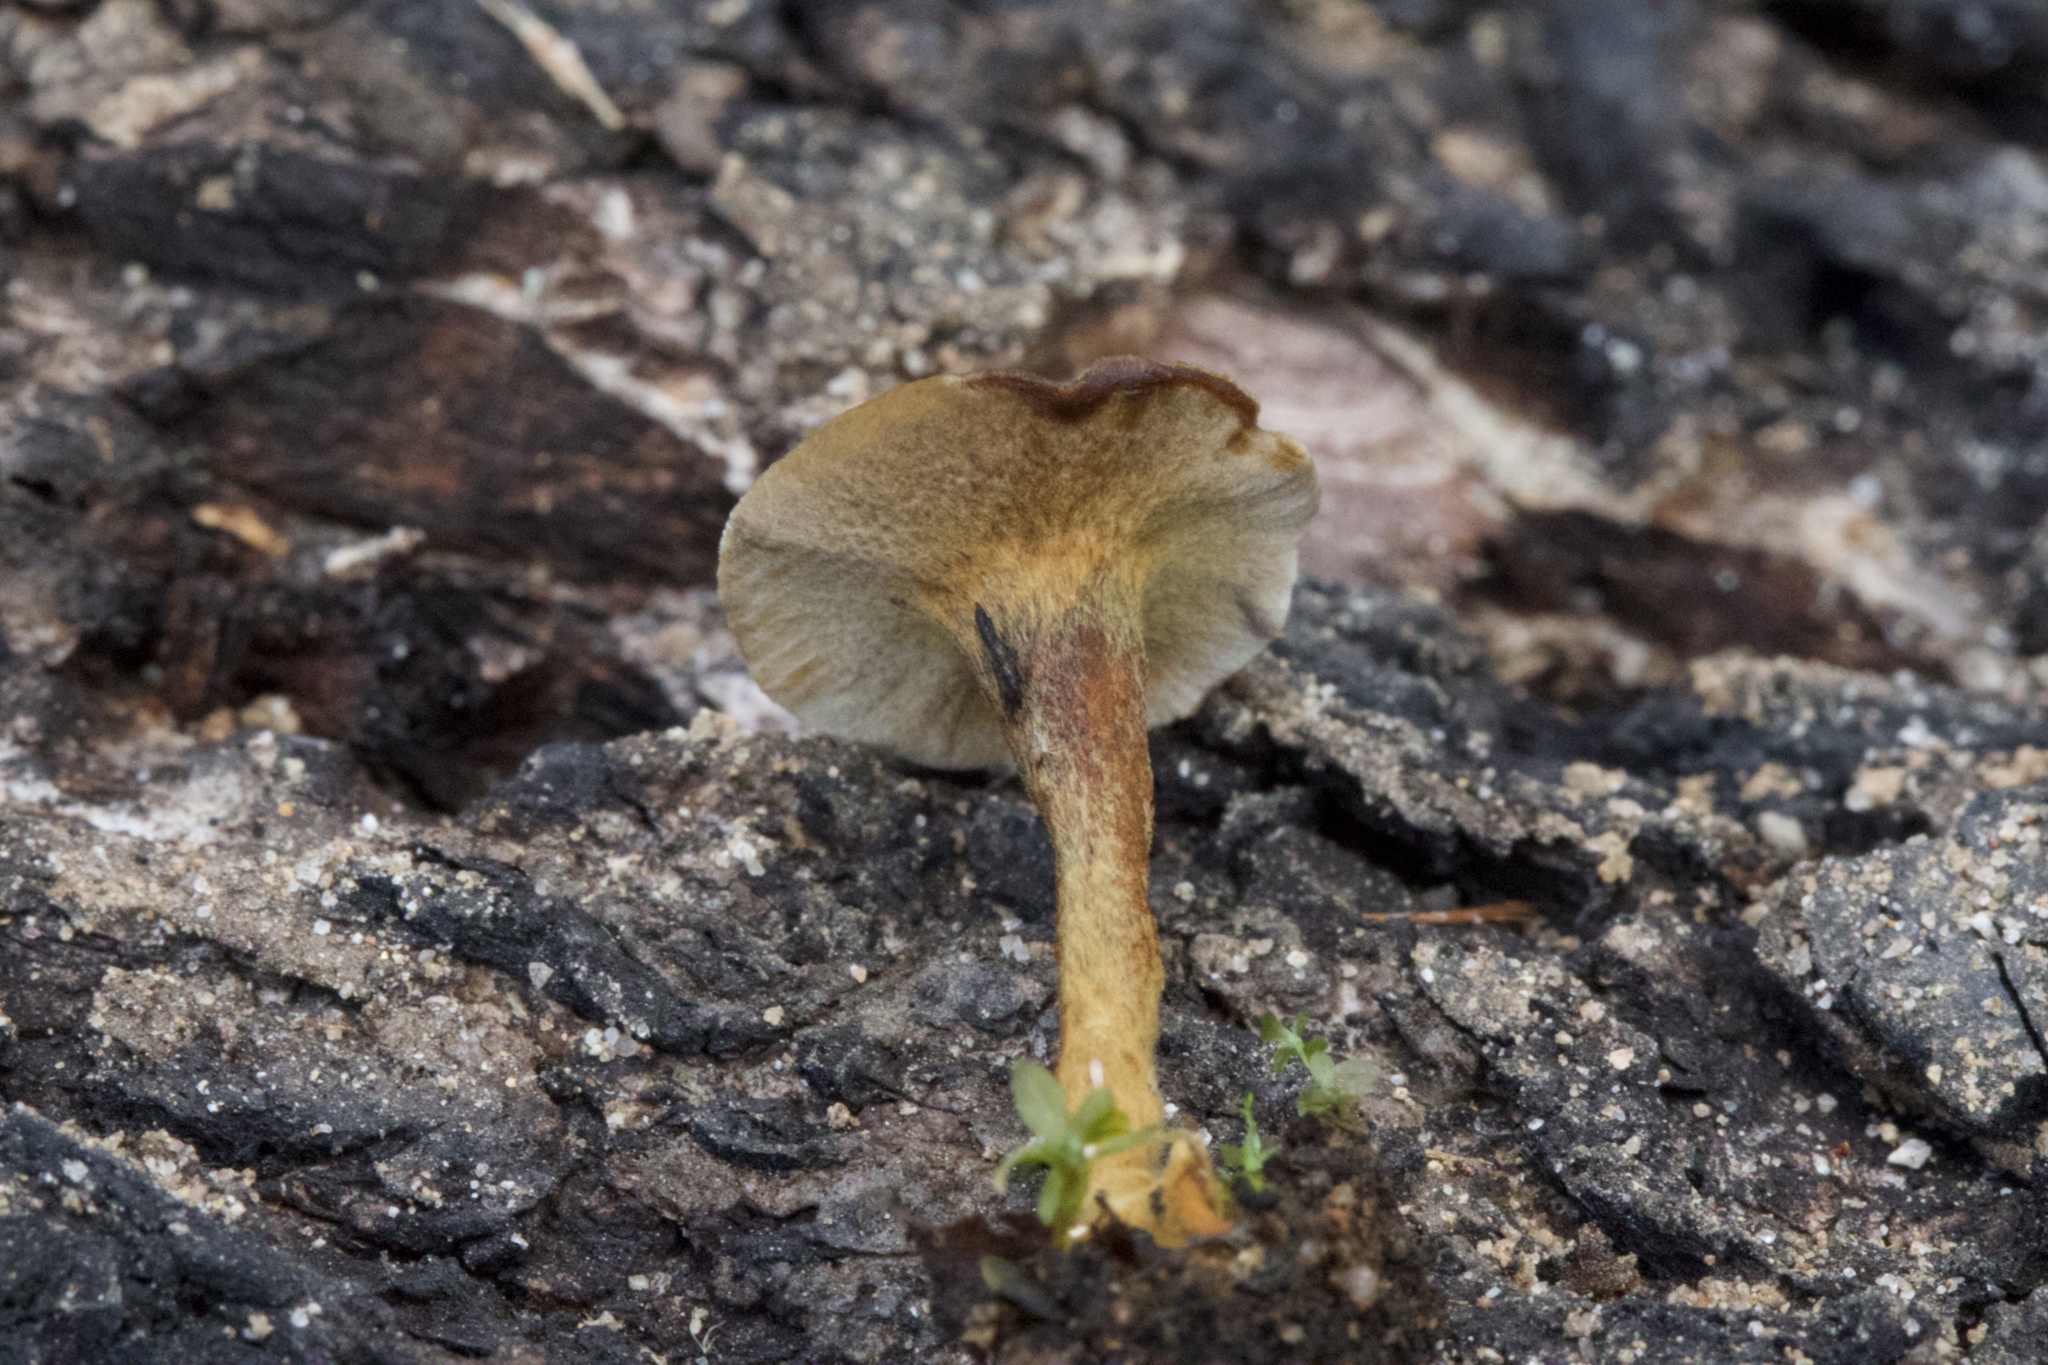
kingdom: Fungi
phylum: Basidiomycota
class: Agaricomycetes
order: Hymenochaetales
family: Hymenochaetaceae
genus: Coltricia
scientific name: Coltricia perennis
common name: Tiger's eye
